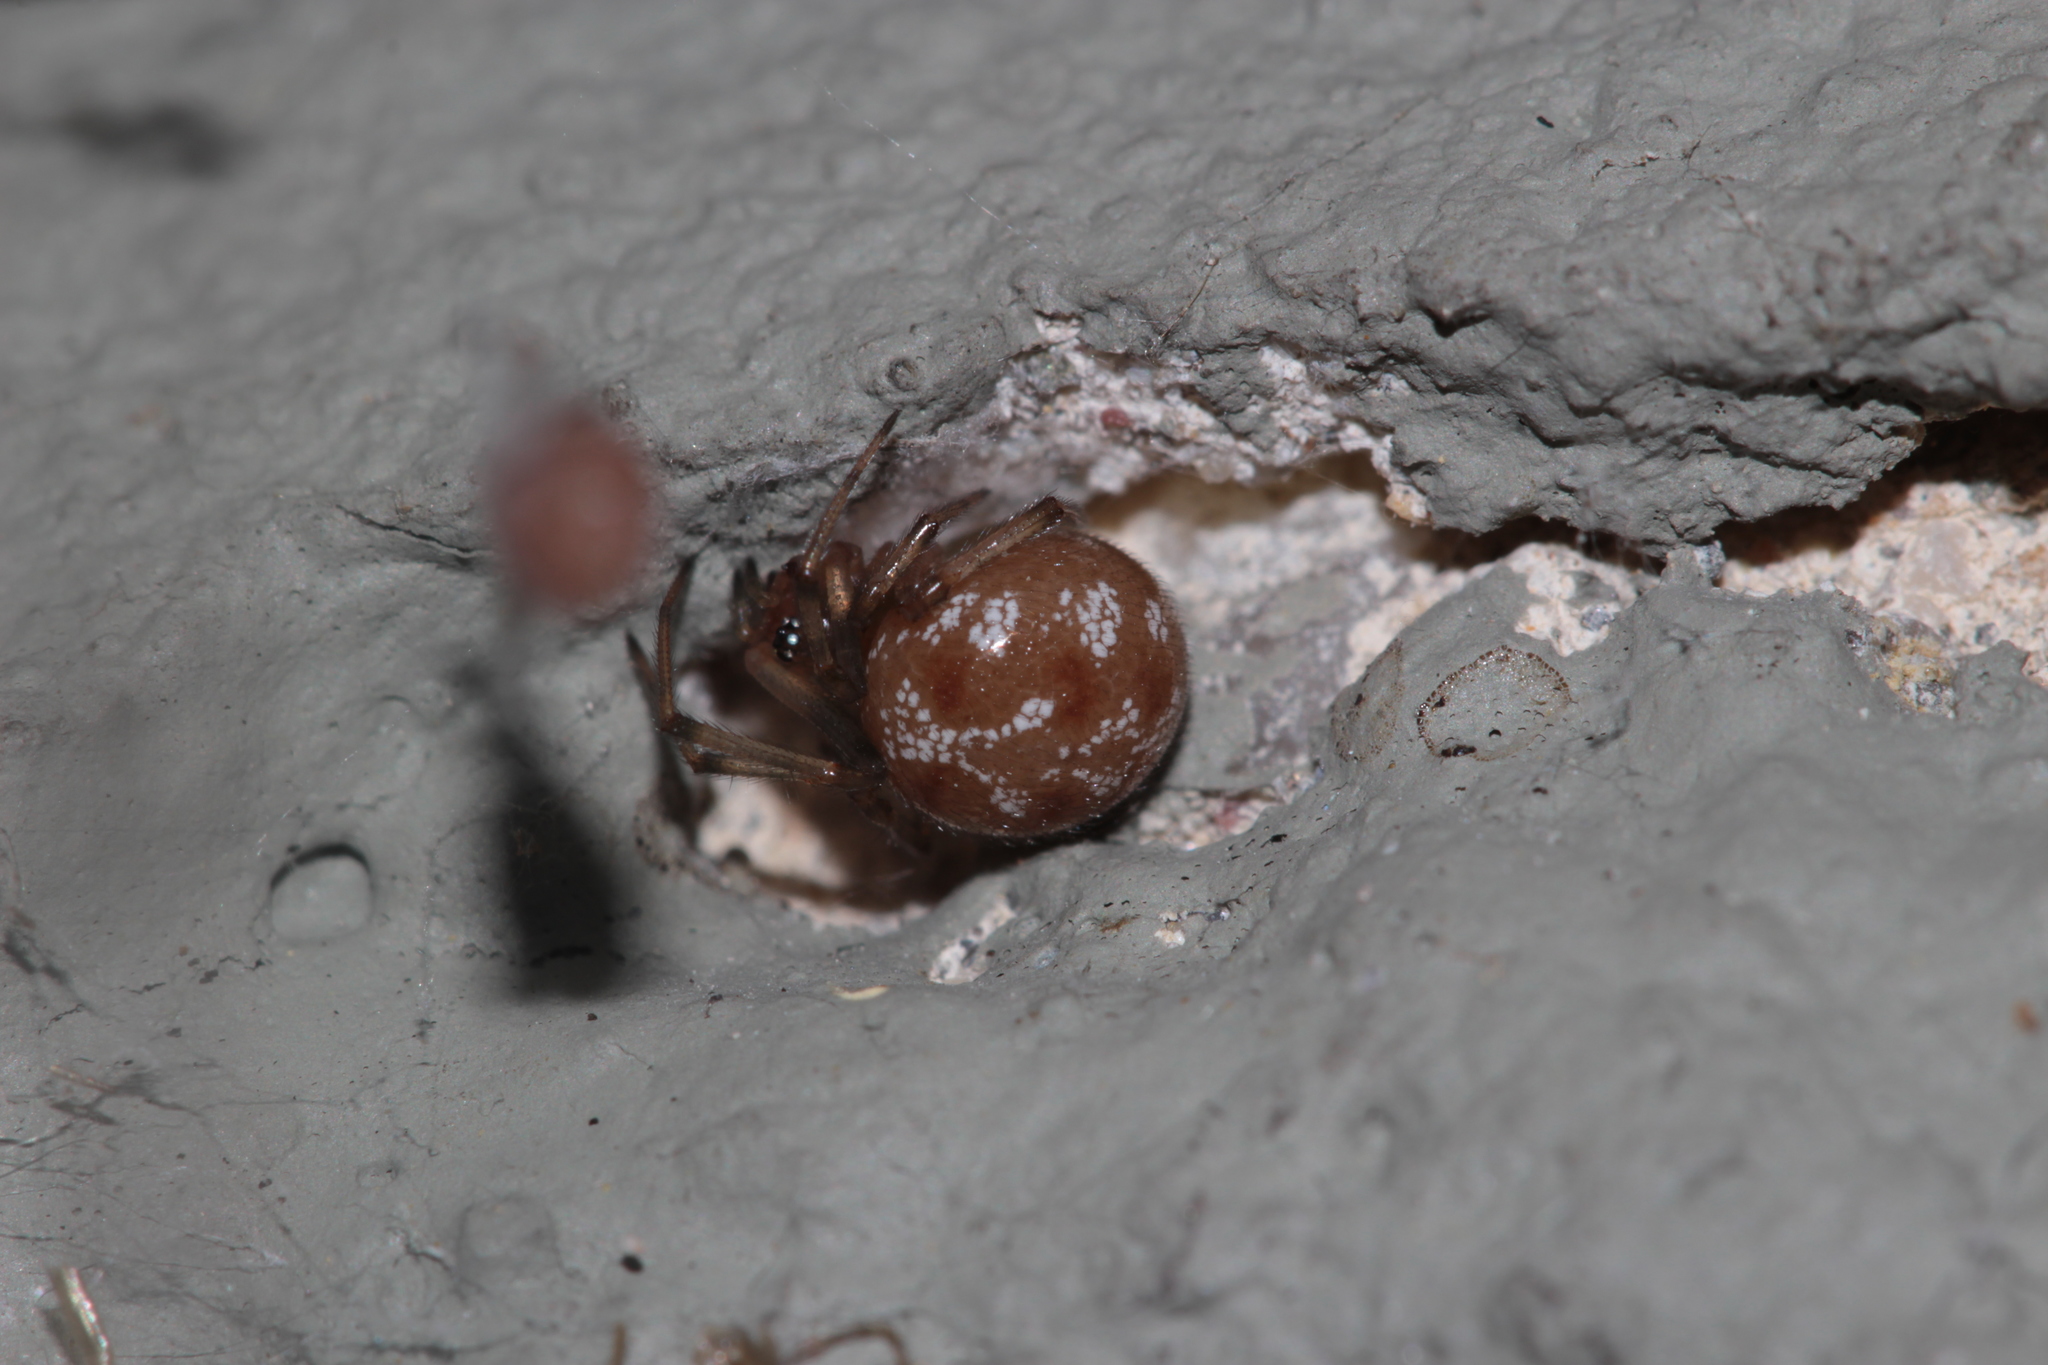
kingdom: Animalia
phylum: Arthropoda
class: Arachnida
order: Araneae
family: Theridiidae
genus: Steatoda
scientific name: Steatoda triangulosa
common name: Triangulate bud spider
